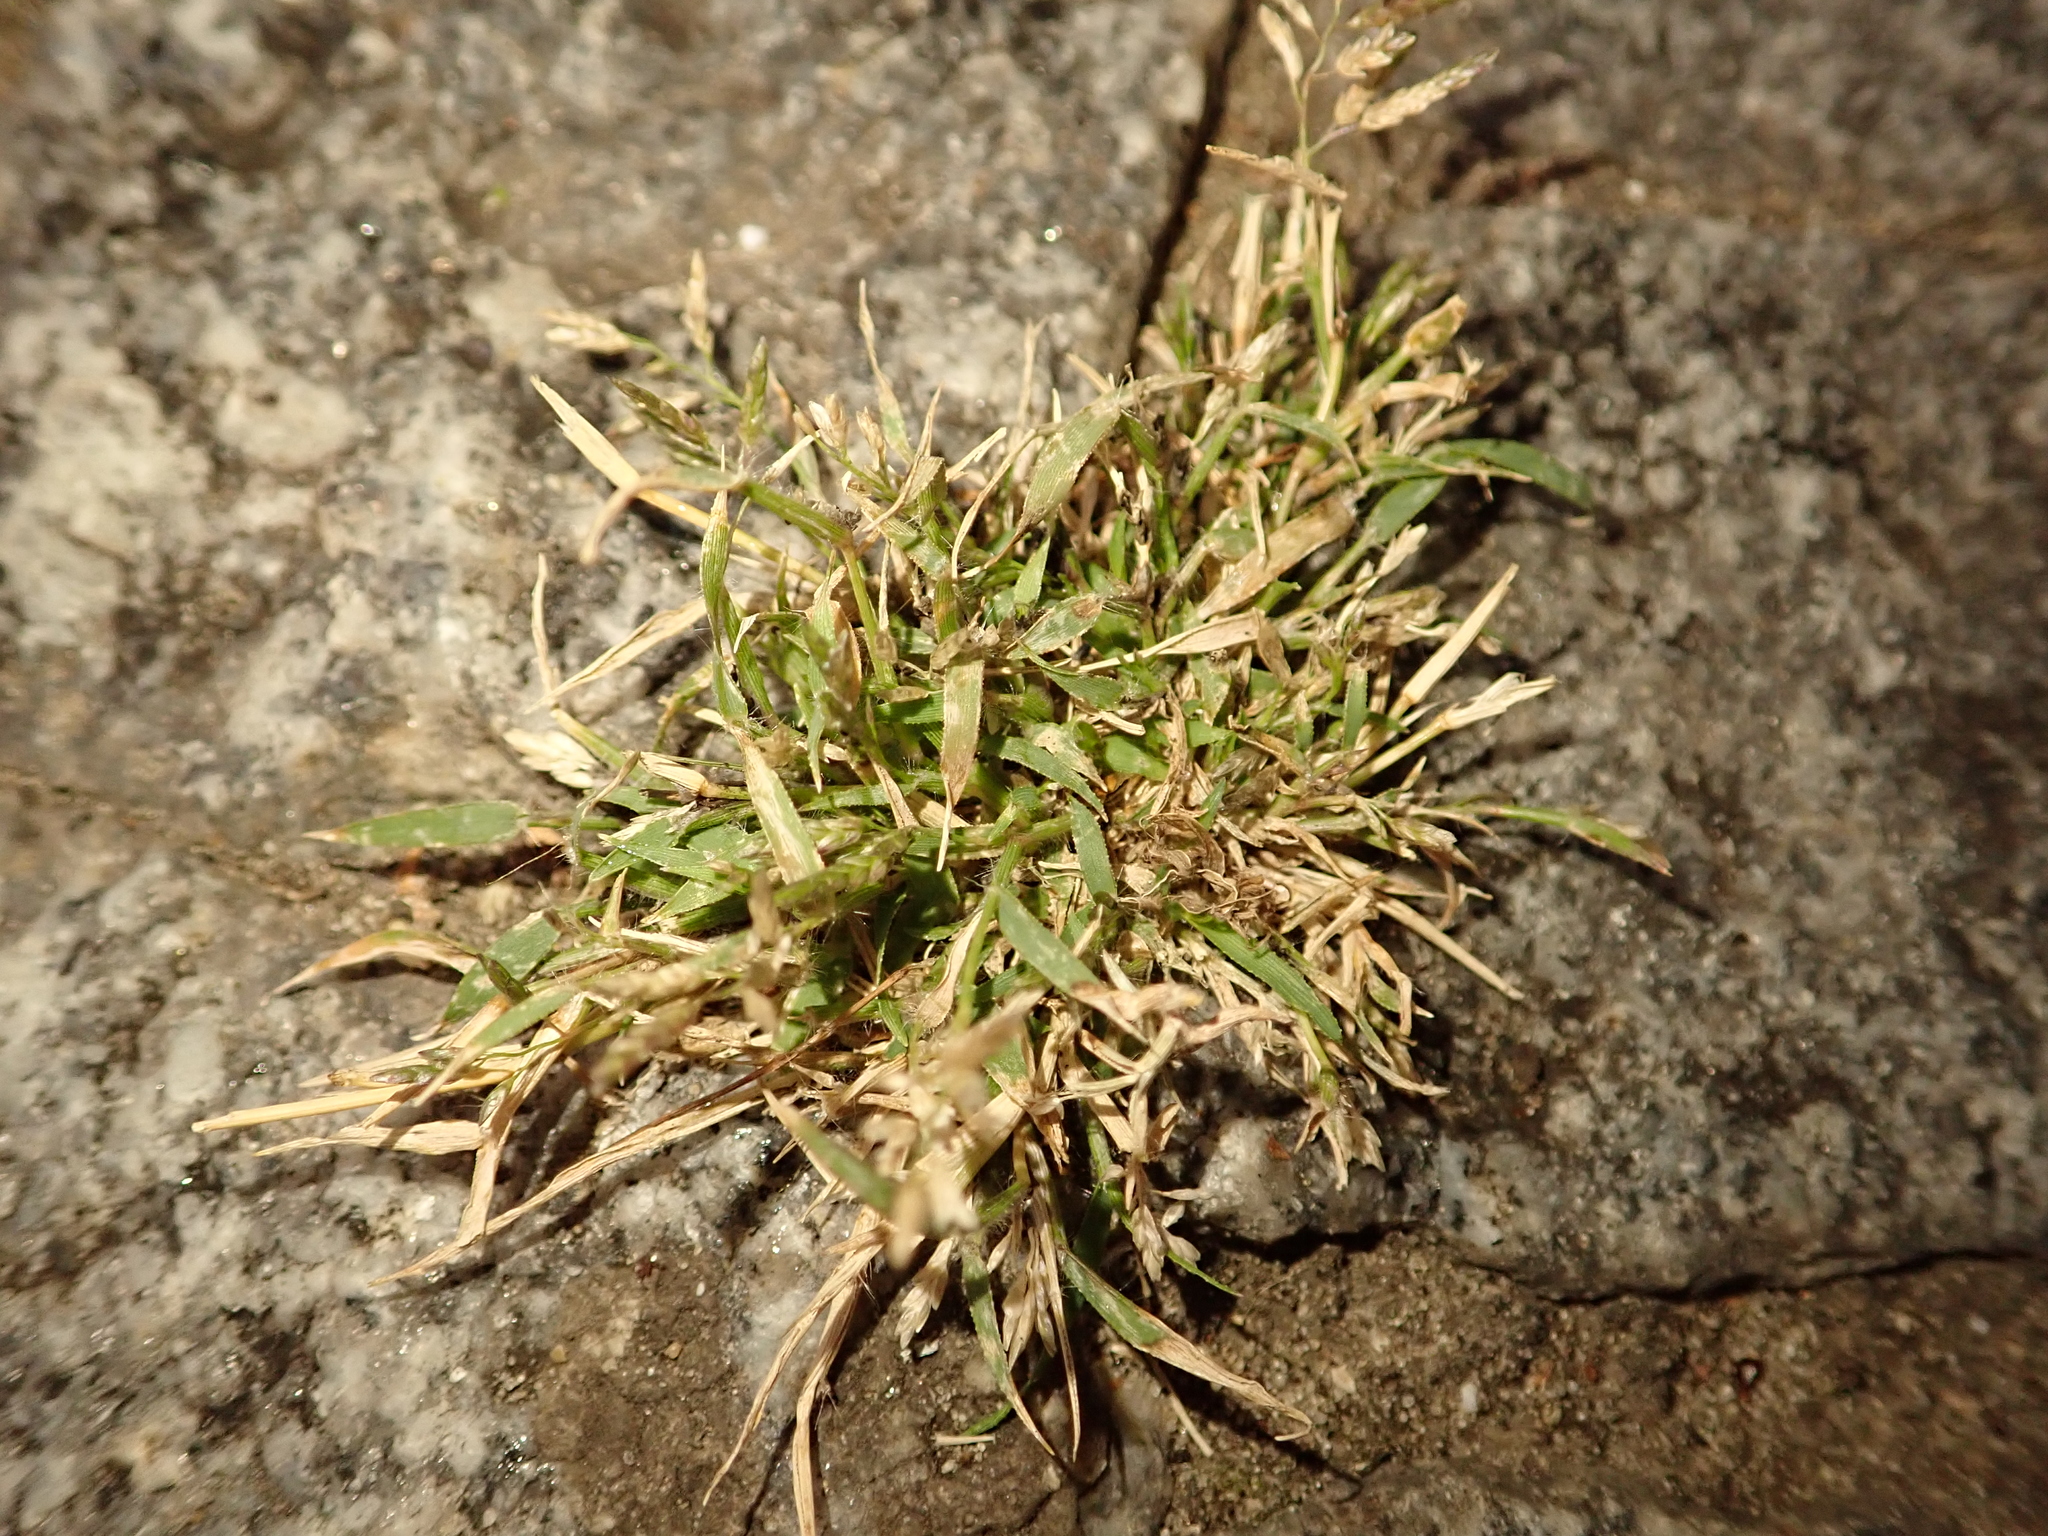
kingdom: Plantae
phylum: Tracheophyta
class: Liliopsida
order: Poales
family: Poaceae
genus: Eragrostis
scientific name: Eragrostis minor
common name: Small love-grass
